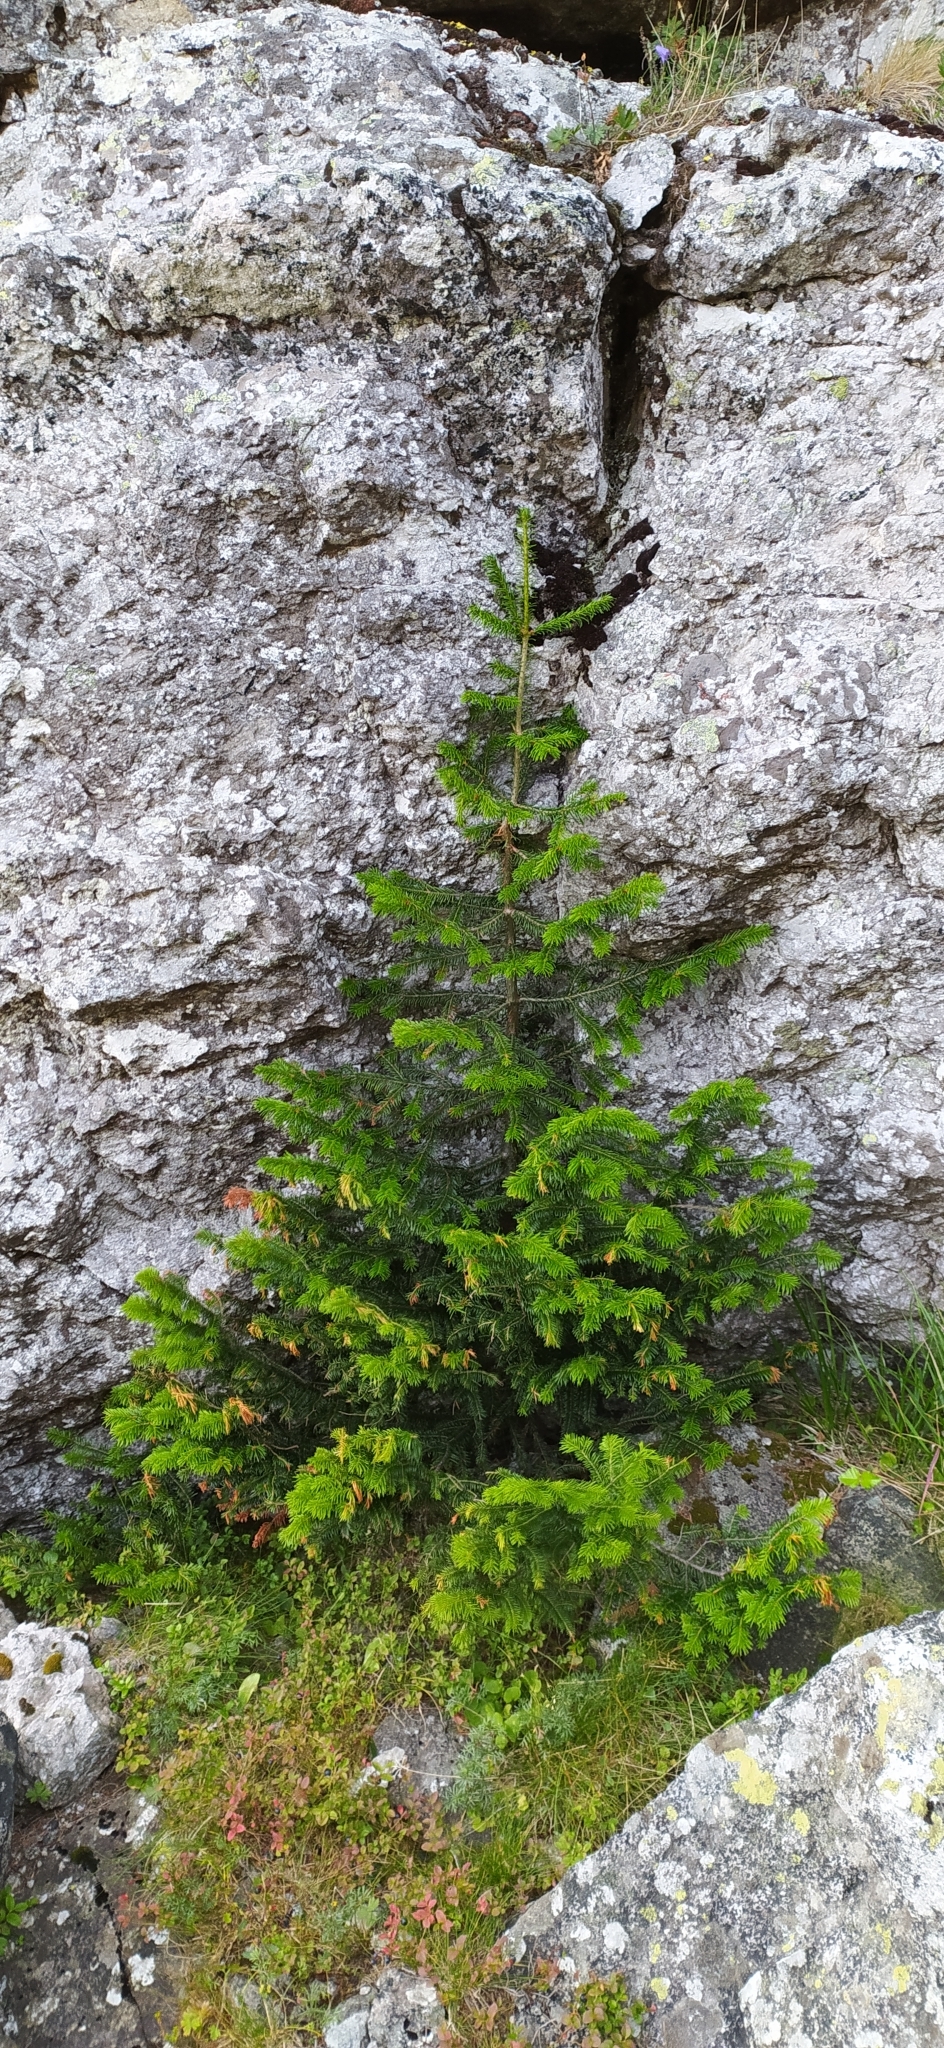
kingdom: Plantae
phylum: Tracheophyta
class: Pinopsida
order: Pinales
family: Pinaceae
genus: Abies
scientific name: Abies sibirica
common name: Siberian fir
